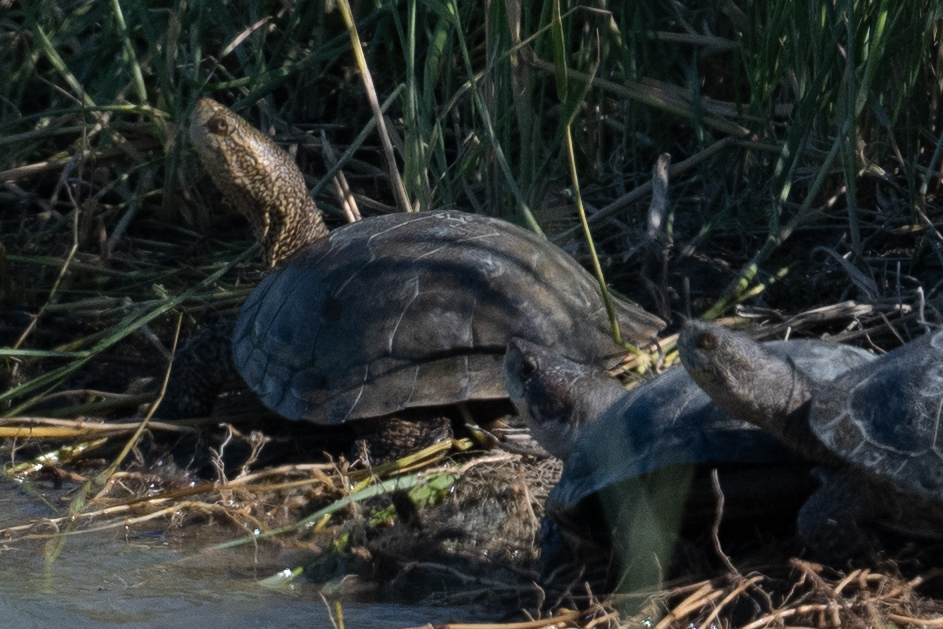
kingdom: Animalia
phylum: Chordata
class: Testudines
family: Emydidae
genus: Actinemys
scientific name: Actinemys marmorata
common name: Western pond turtle
